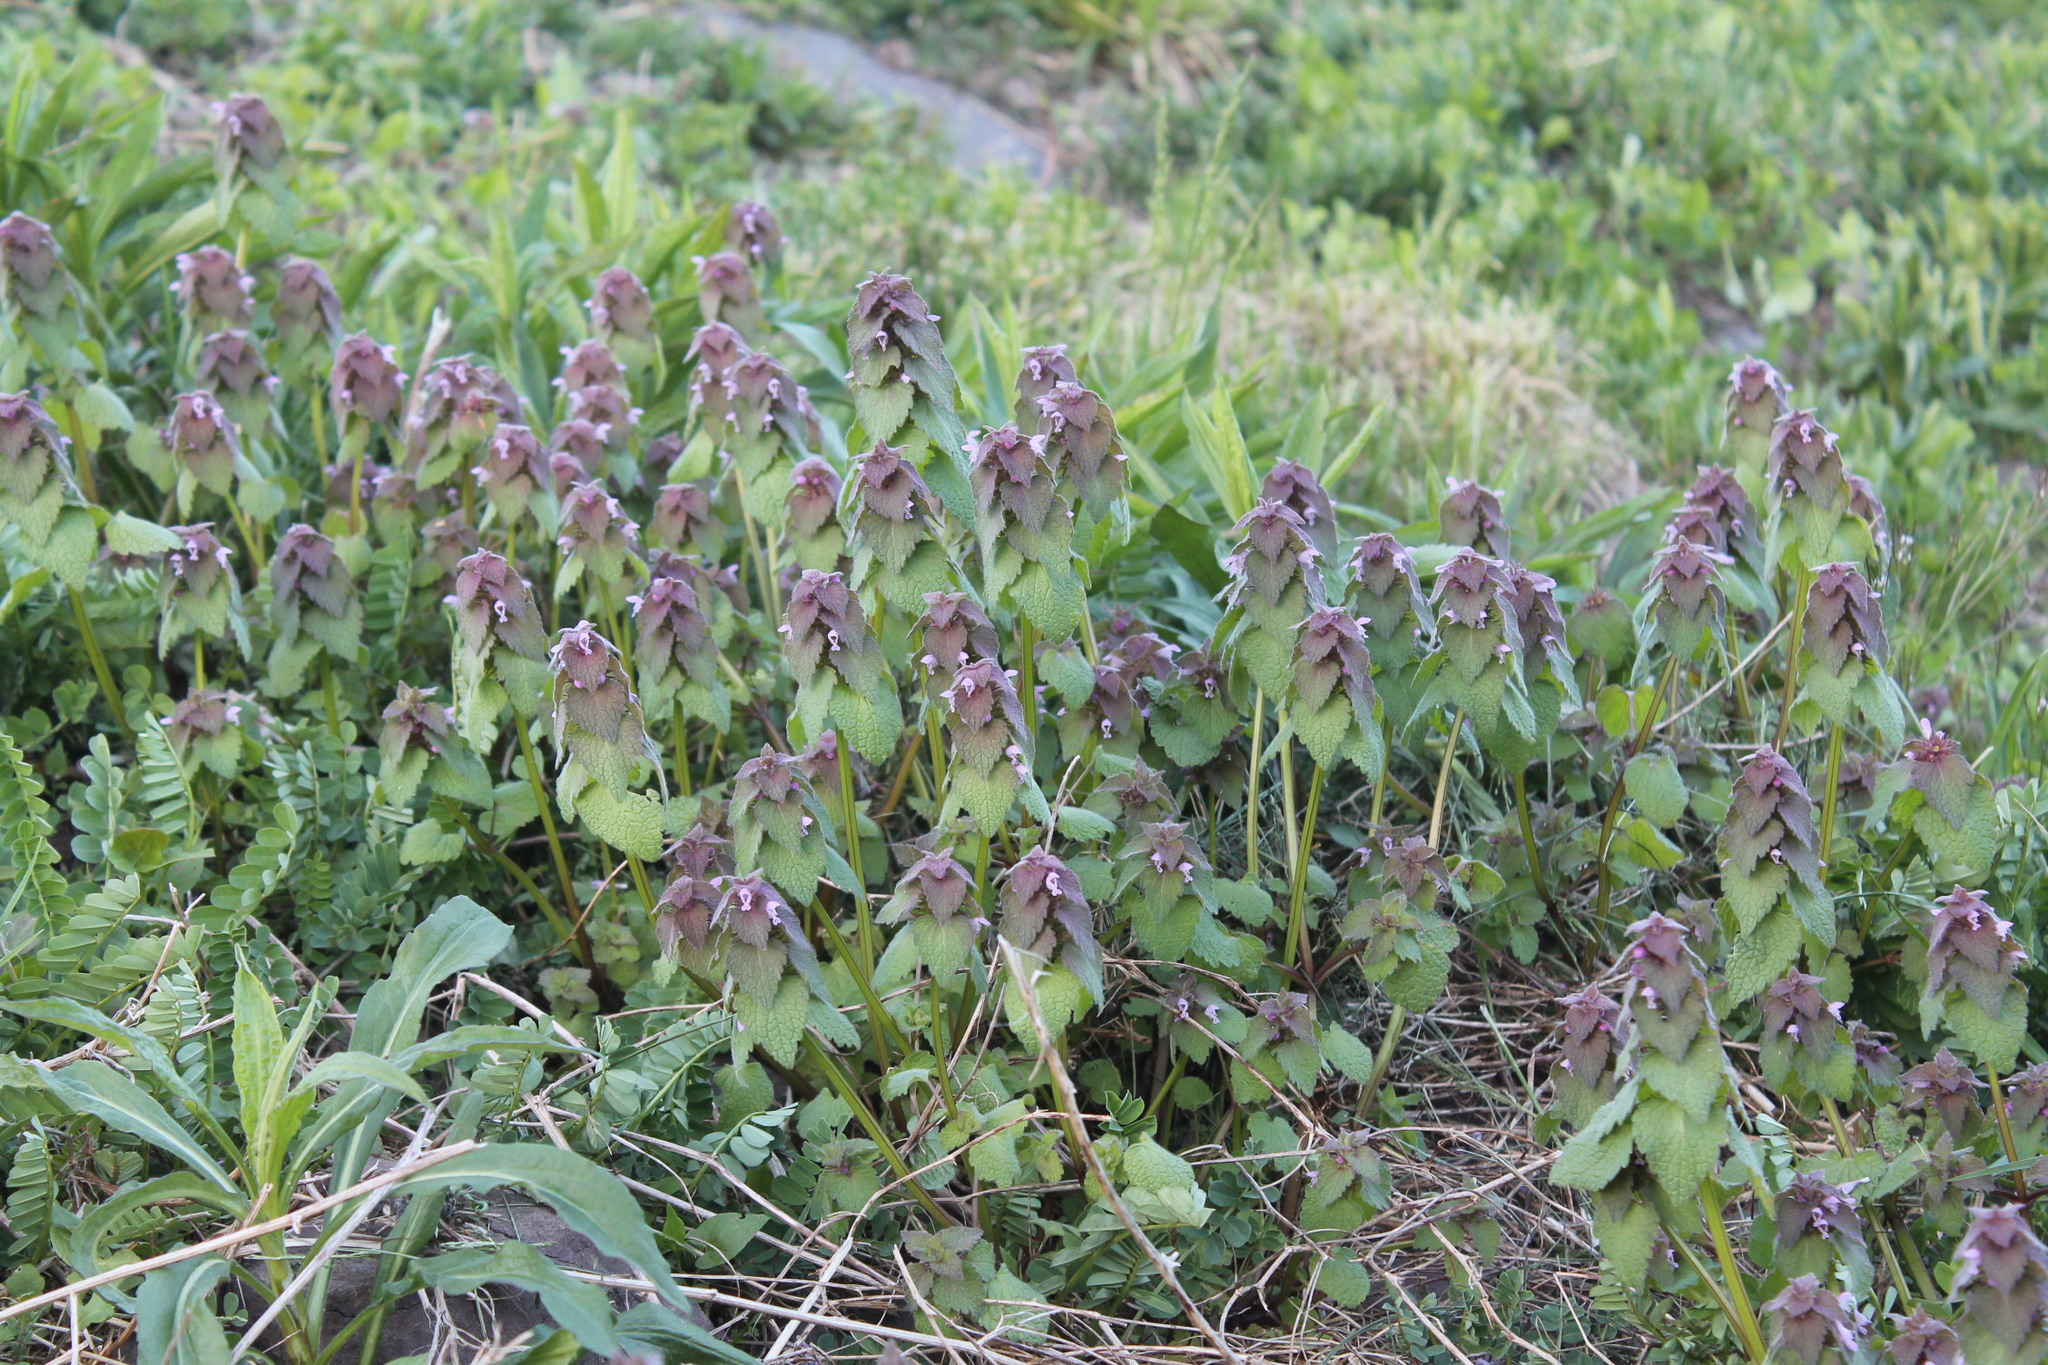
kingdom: Plantae
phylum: Tracheophyta
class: Magnoliopsida
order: Lamiales
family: Lamiaceae
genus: Lamium
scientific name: Lamium purpureum
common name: Red dead-nettle
